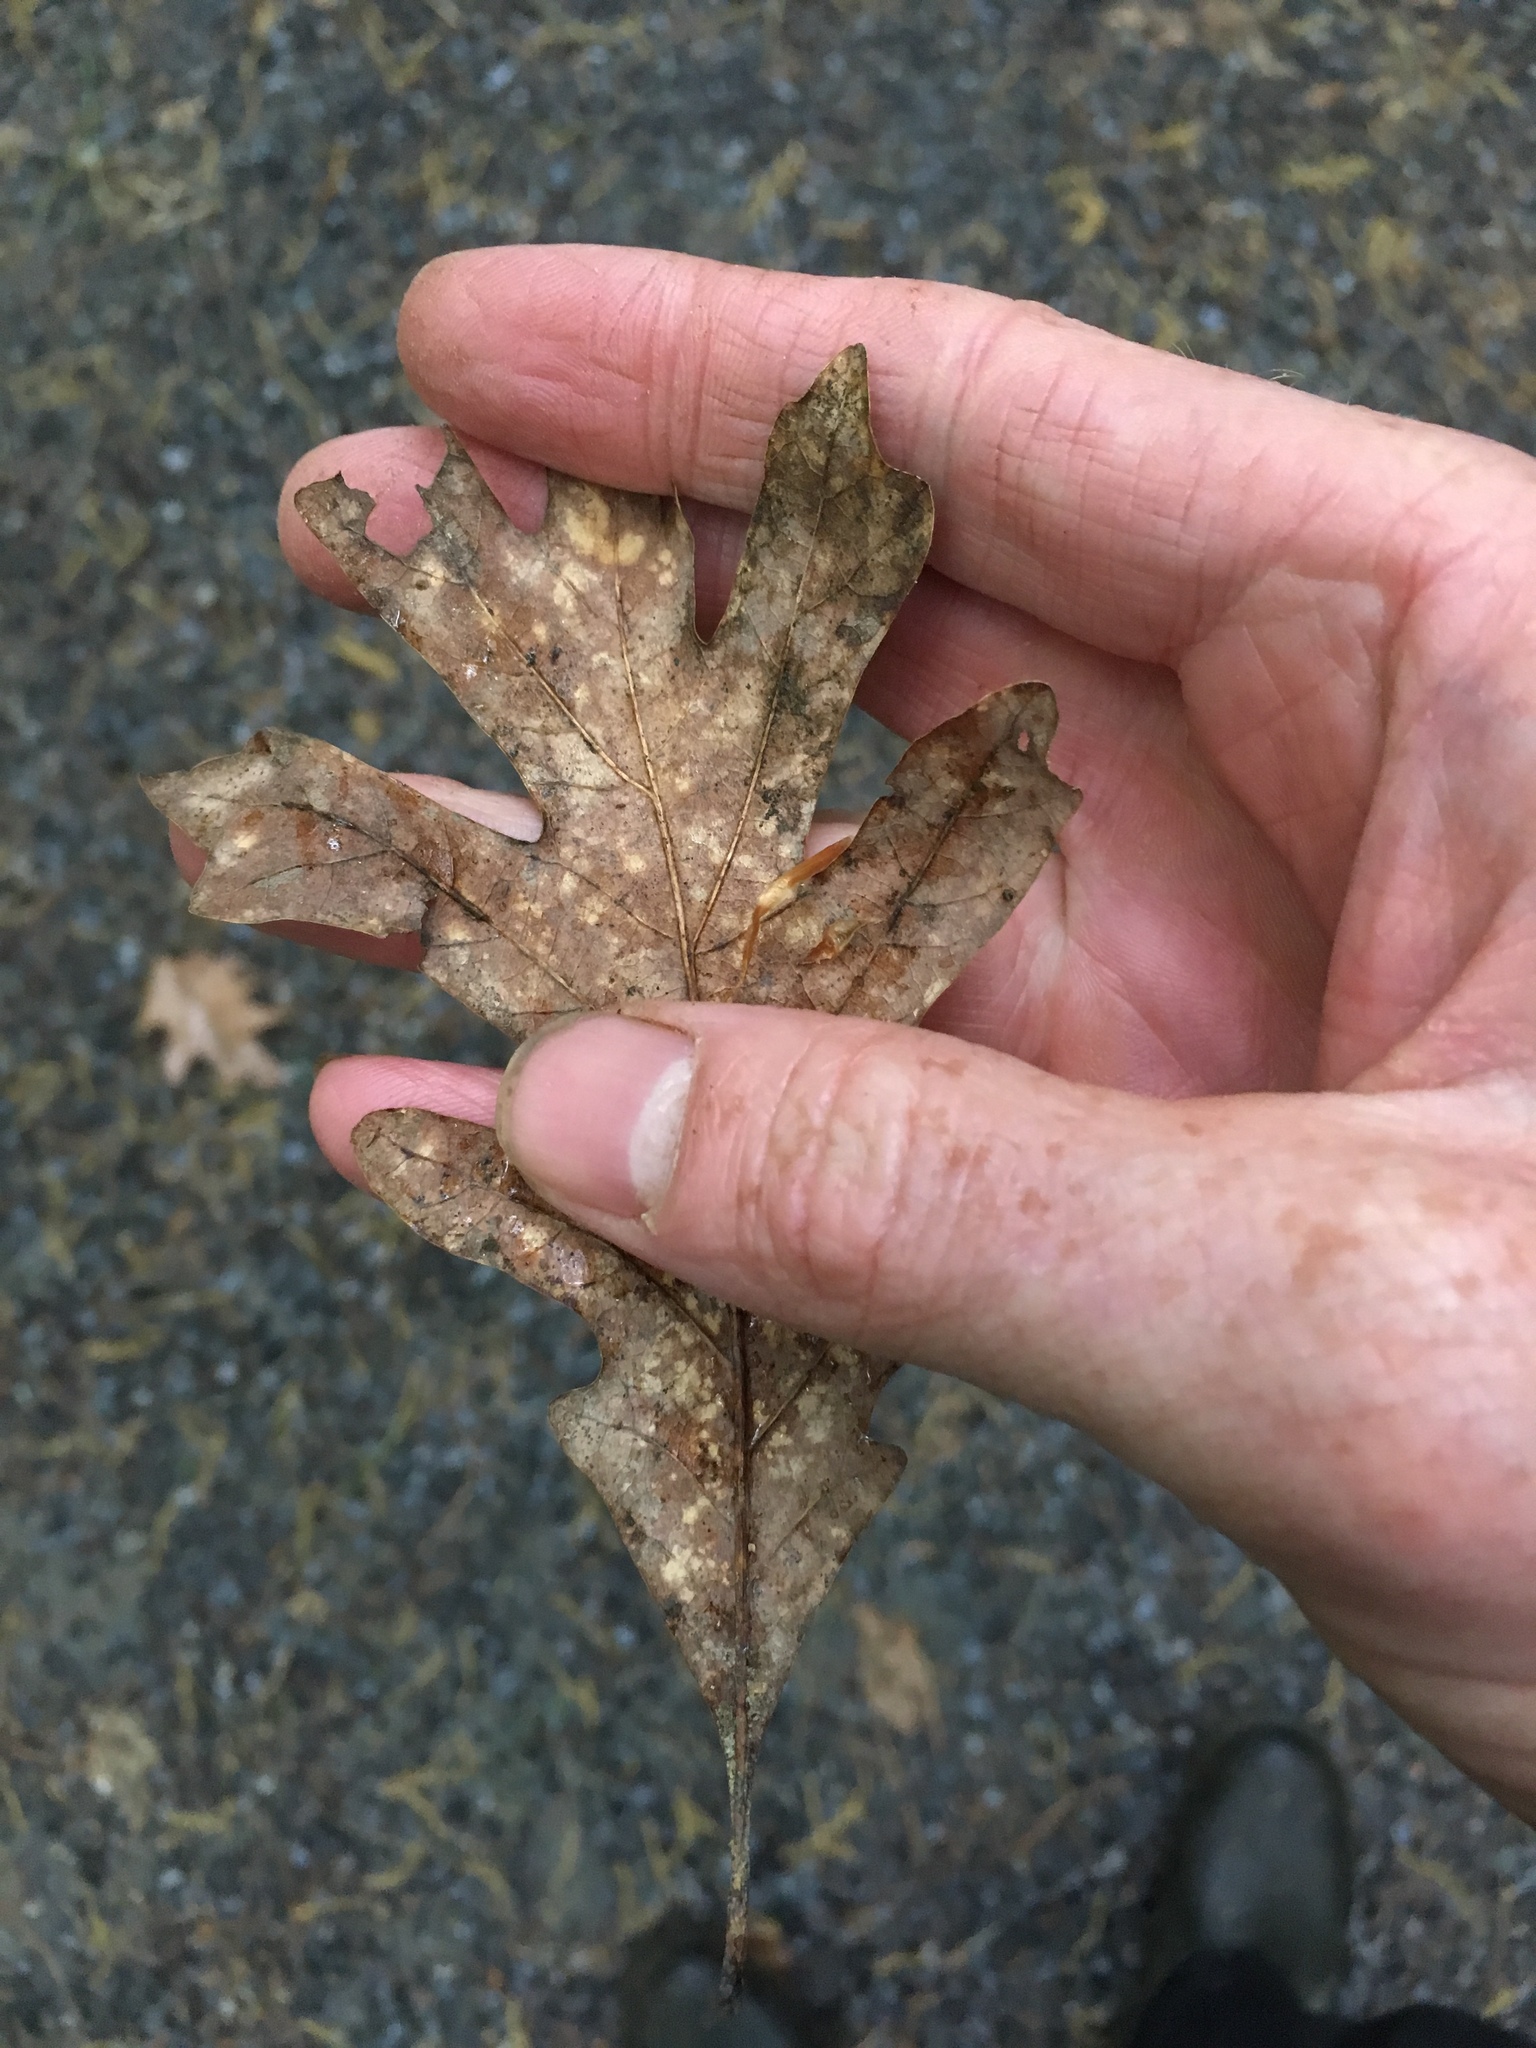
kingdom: Plantae
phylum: Tracheophyta
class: Magnoliopsida
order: Fagales
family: Fagaceae
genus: Quercus
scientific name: Quercus alba
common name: White oak
